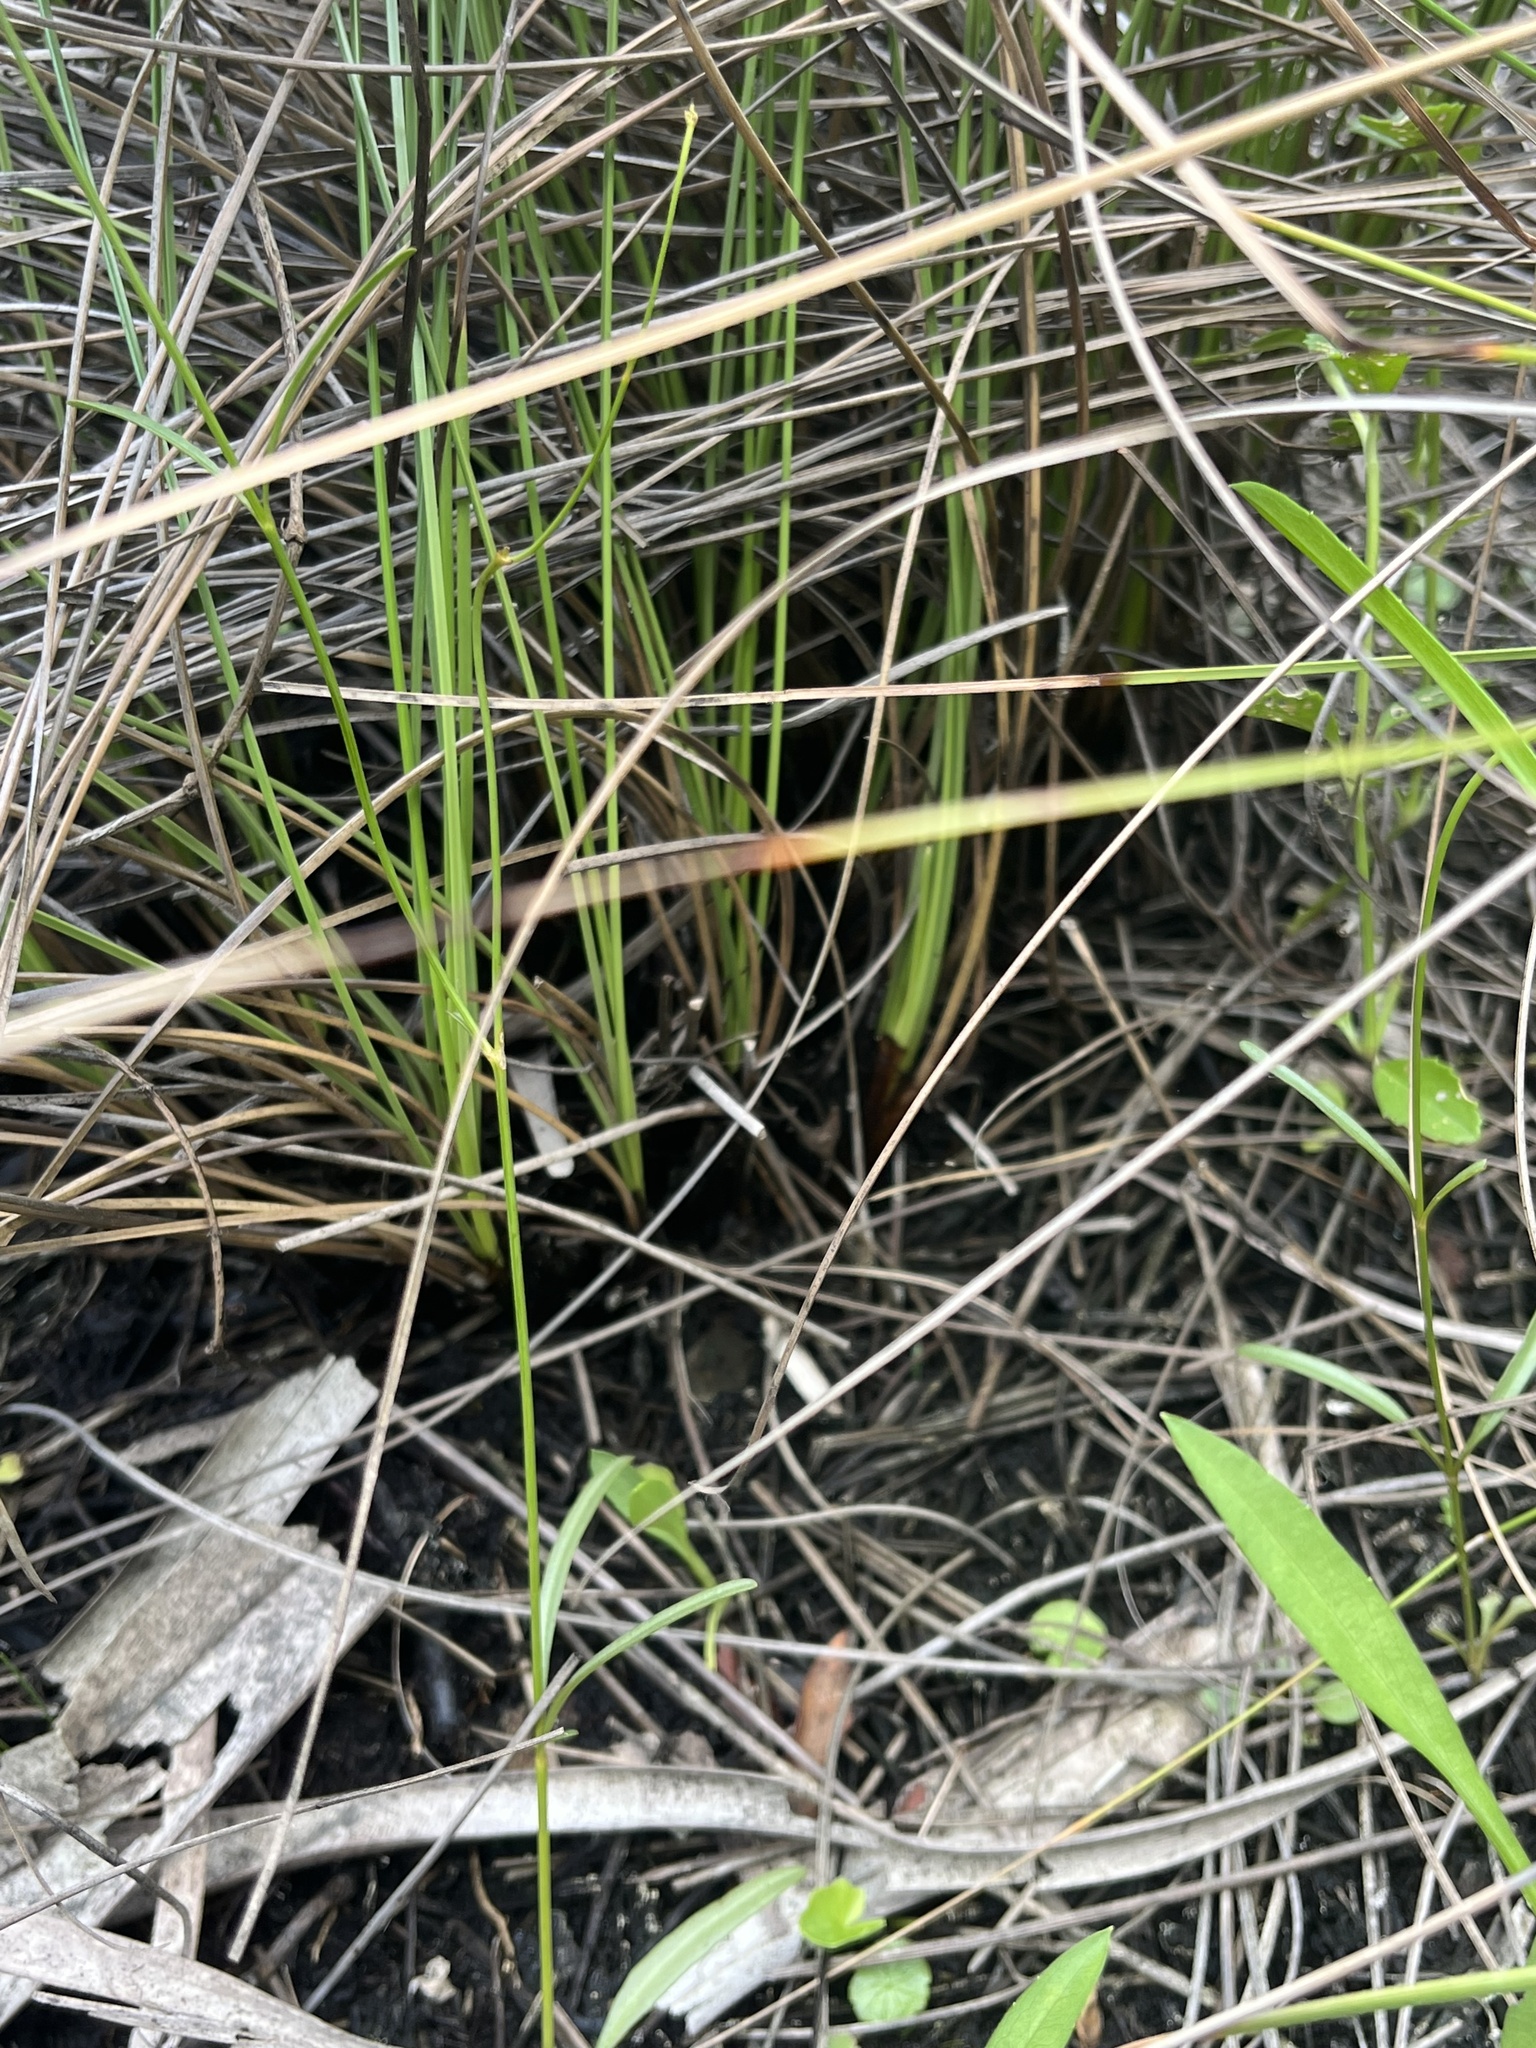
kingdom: Plantae
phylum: Tracheophyta
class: Liliopsida
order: Poales
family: Cyperaceae
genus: Fimbristylis
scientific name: Fimbristylis spadicea
